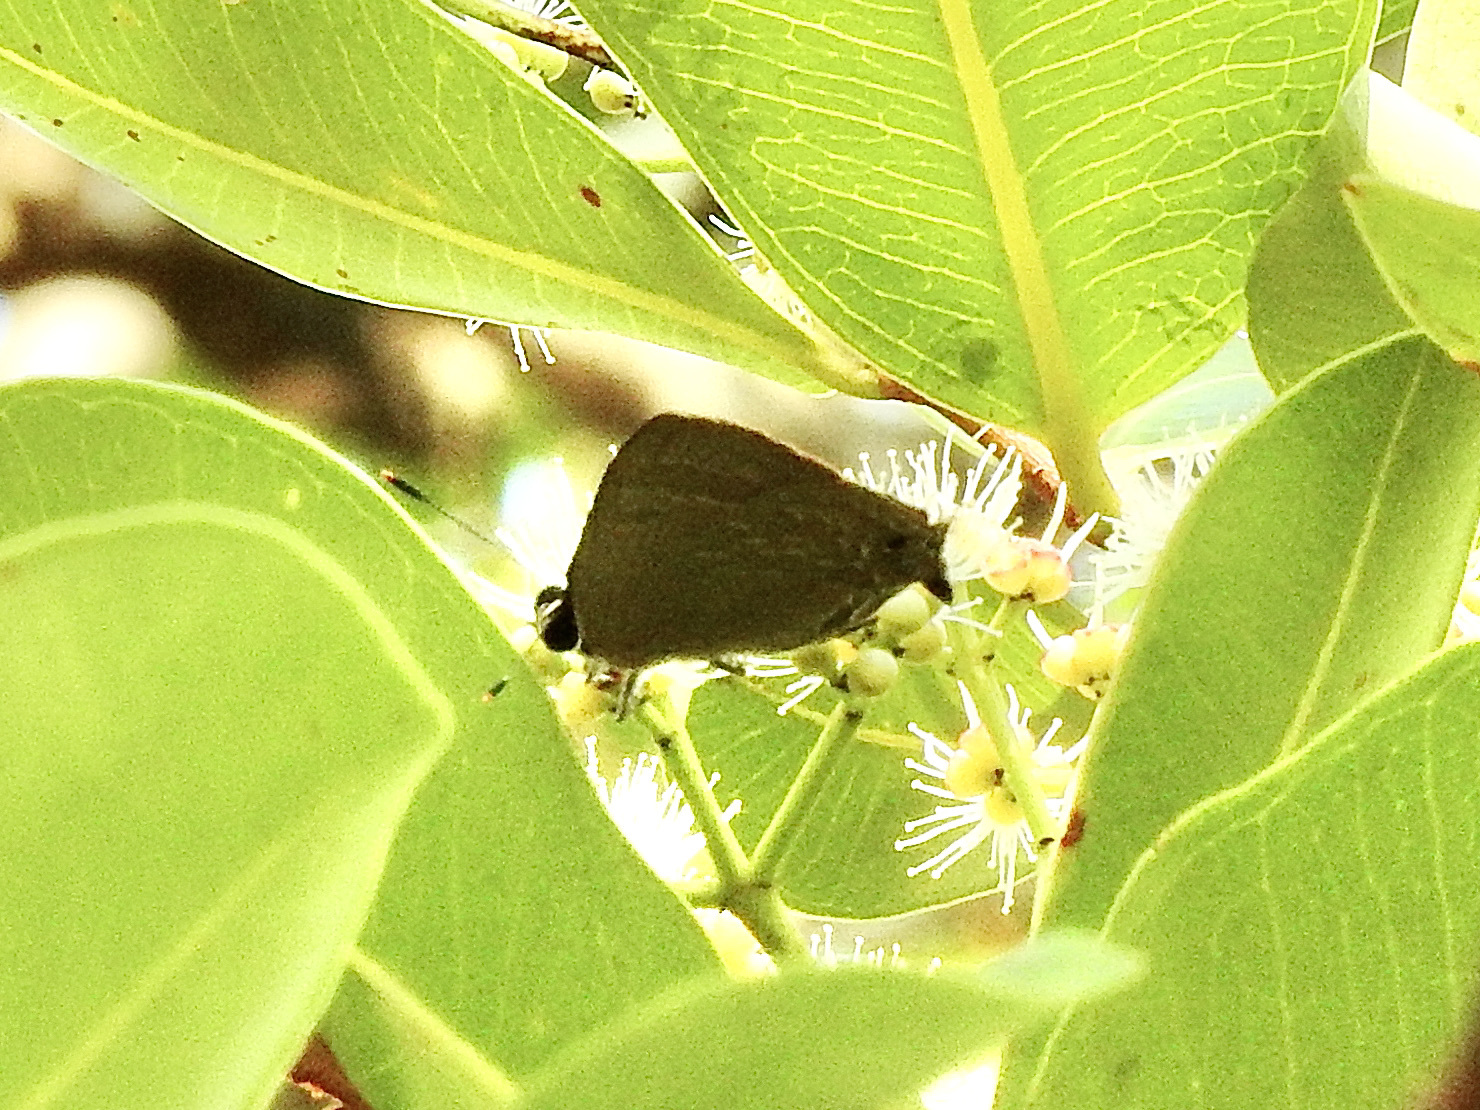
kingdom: Animalia
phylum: Arthropoda
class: Insecta
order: Lepidoptera
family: Lycaenidae
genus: Deudorix
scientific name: Deudorix epijarbas
